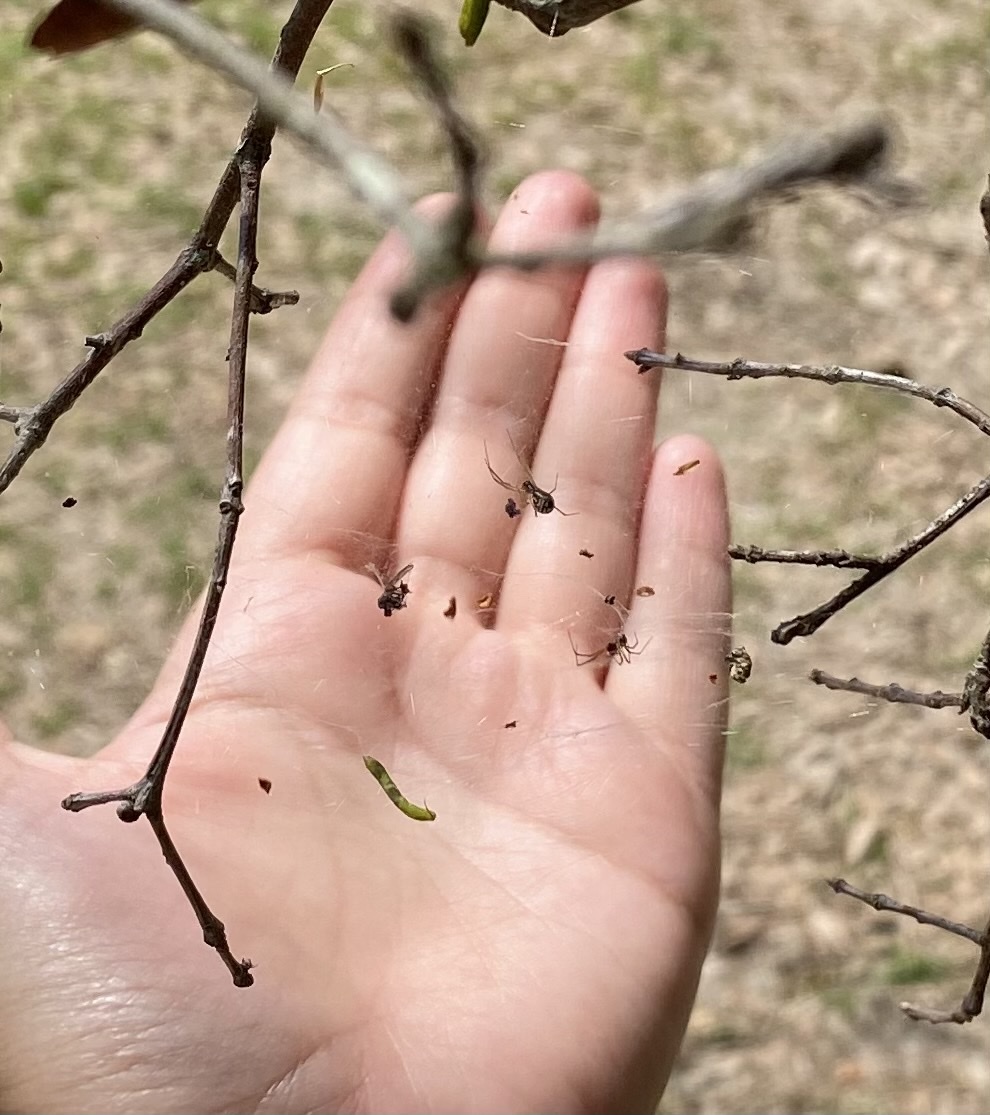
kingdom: Animalia
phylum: Arthropoda
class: Arachnida
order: Araneae
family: Linyphiidae
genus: Frontinella
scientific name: Frontinella pyramitela
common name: Bowl-and-doily spider
